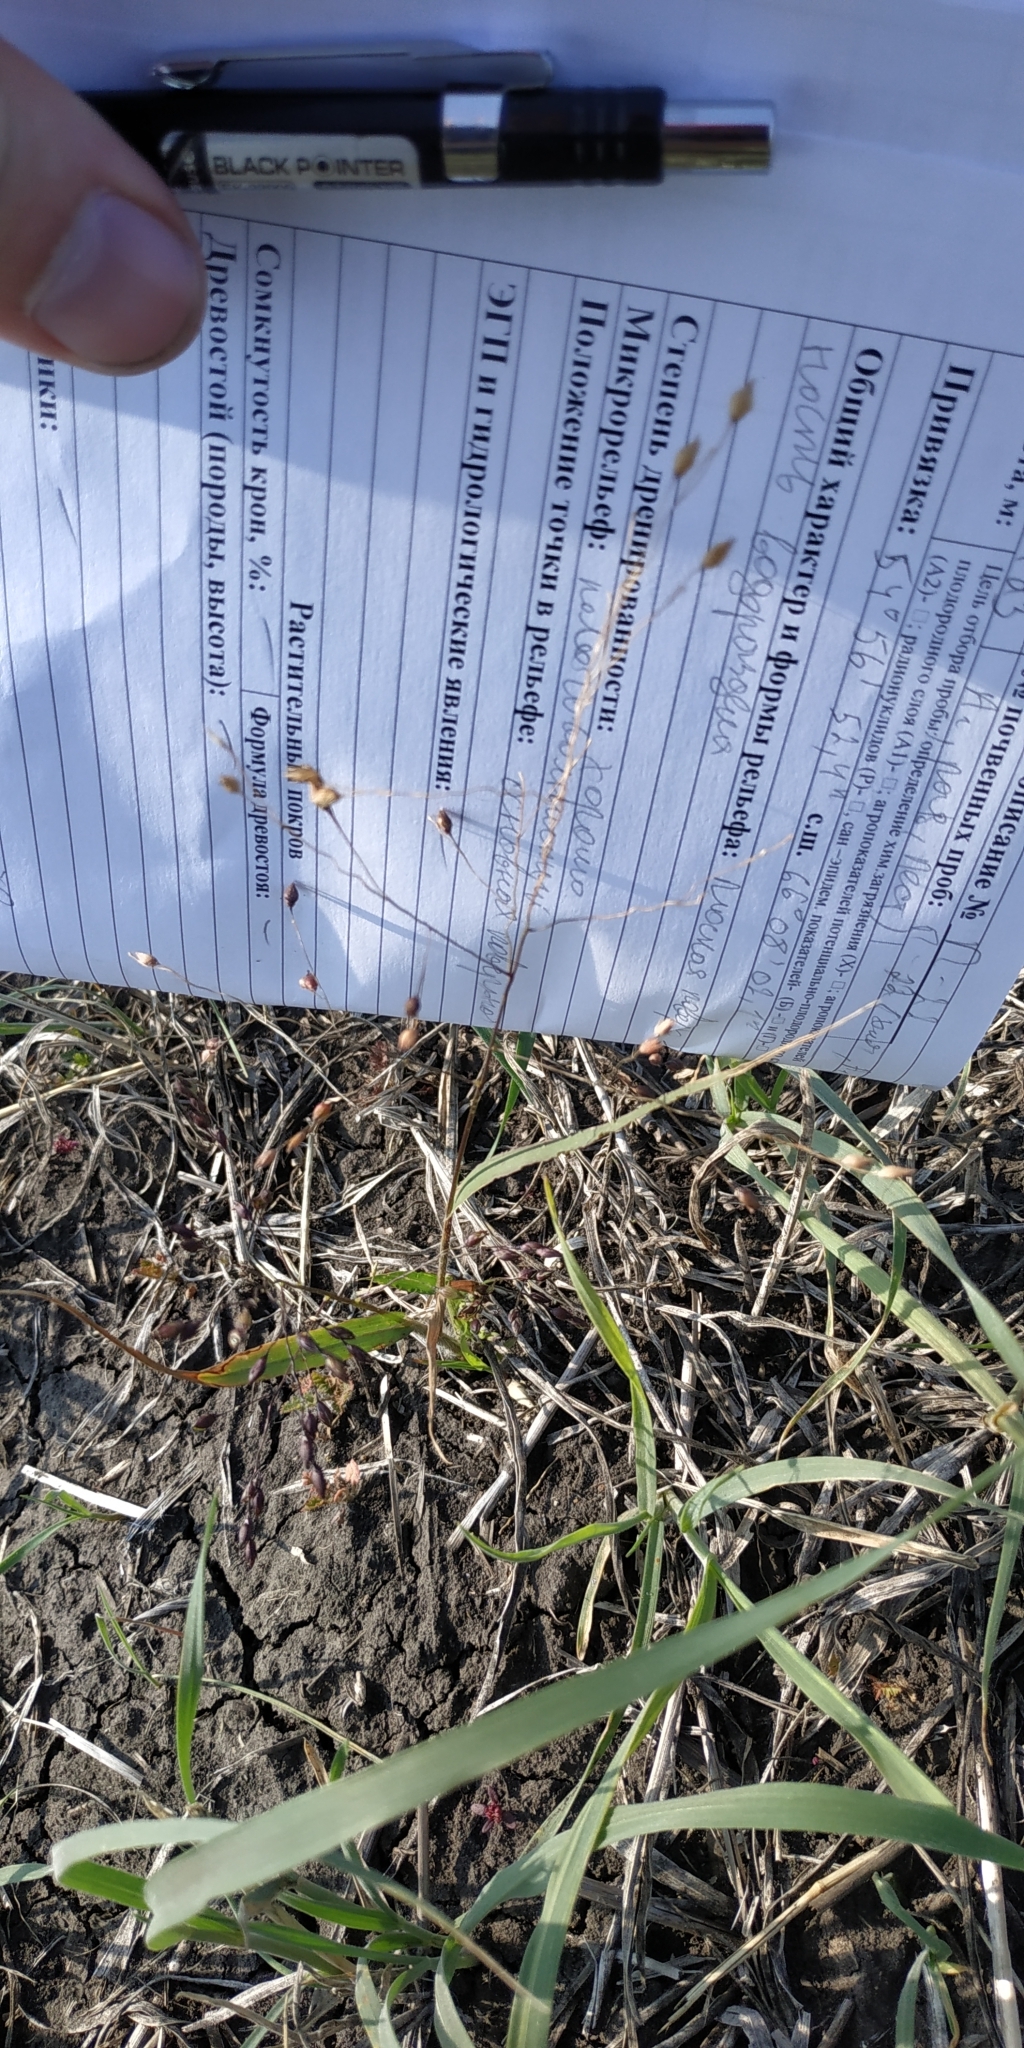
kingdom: Plantae
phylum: Tracheophyta
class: Liliopsida
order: Poales
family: Poaceae
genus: Panicum
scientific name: Panicum miliaceum
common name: Common millet
